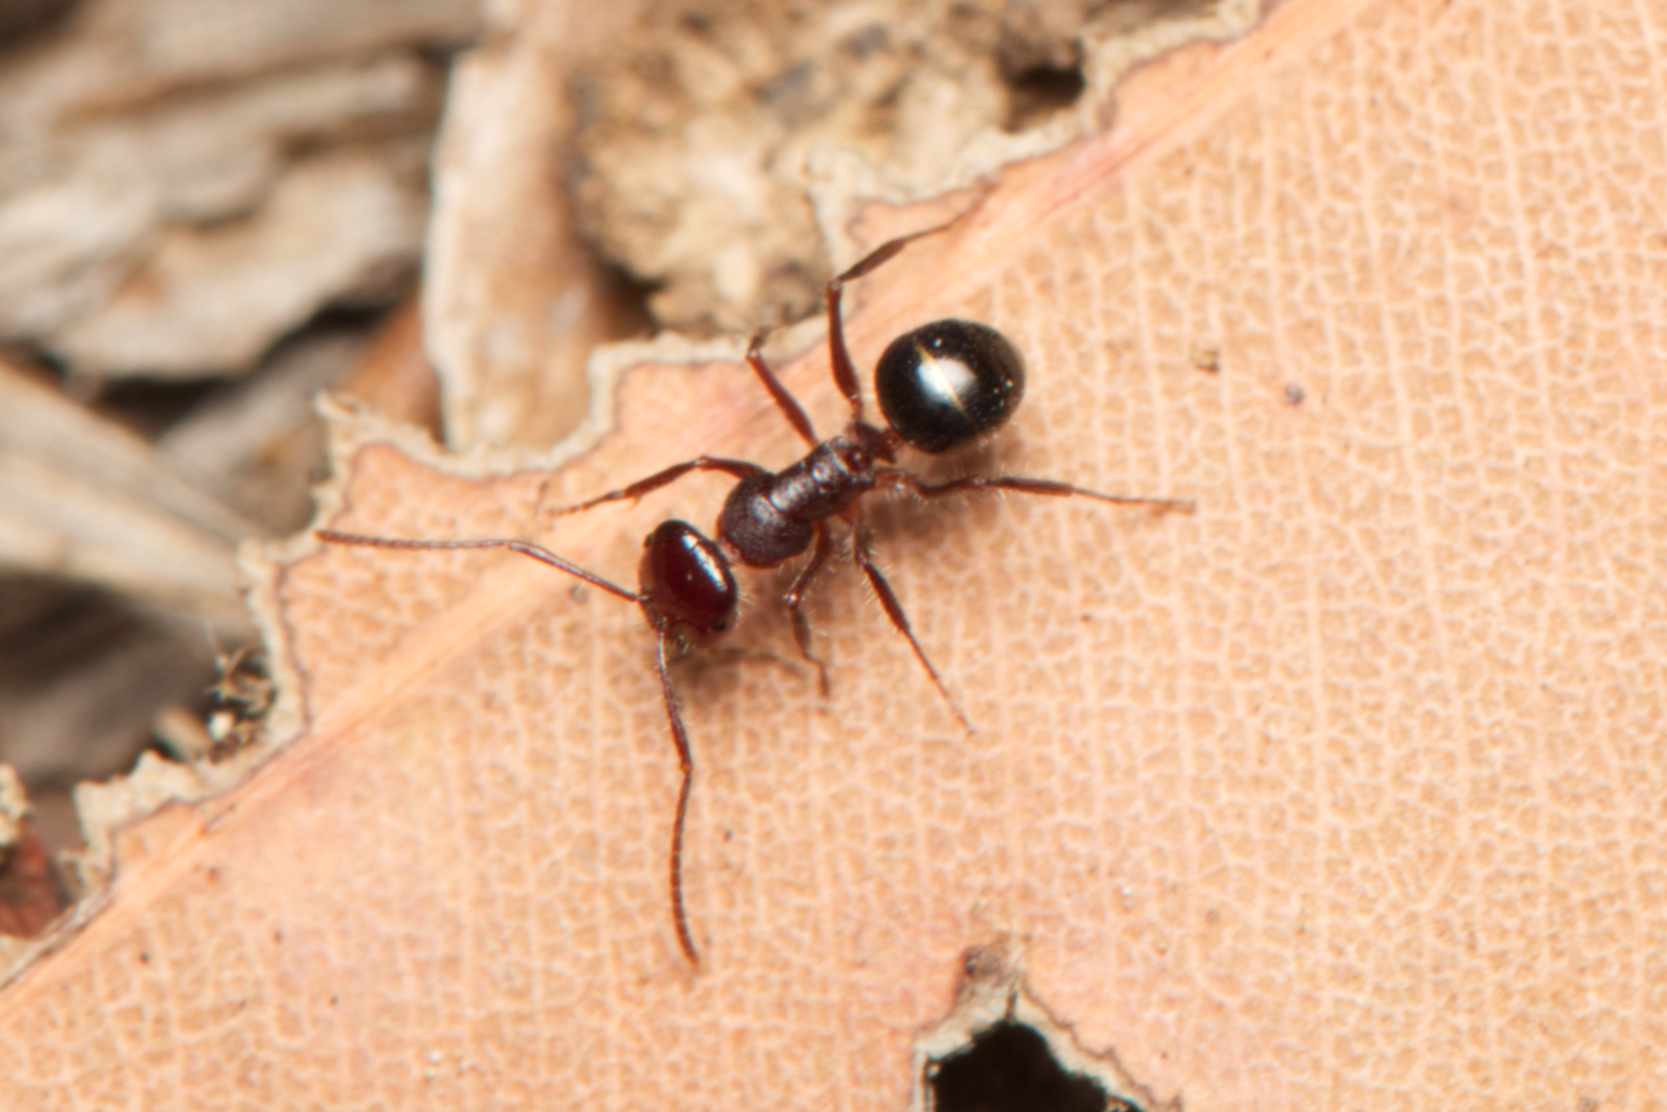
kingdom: Animalia
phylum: Arthropoda
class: Insecta
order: Hymenoptera
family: Formicidae
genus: Melophorus
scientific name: Melophorus hirsutus
